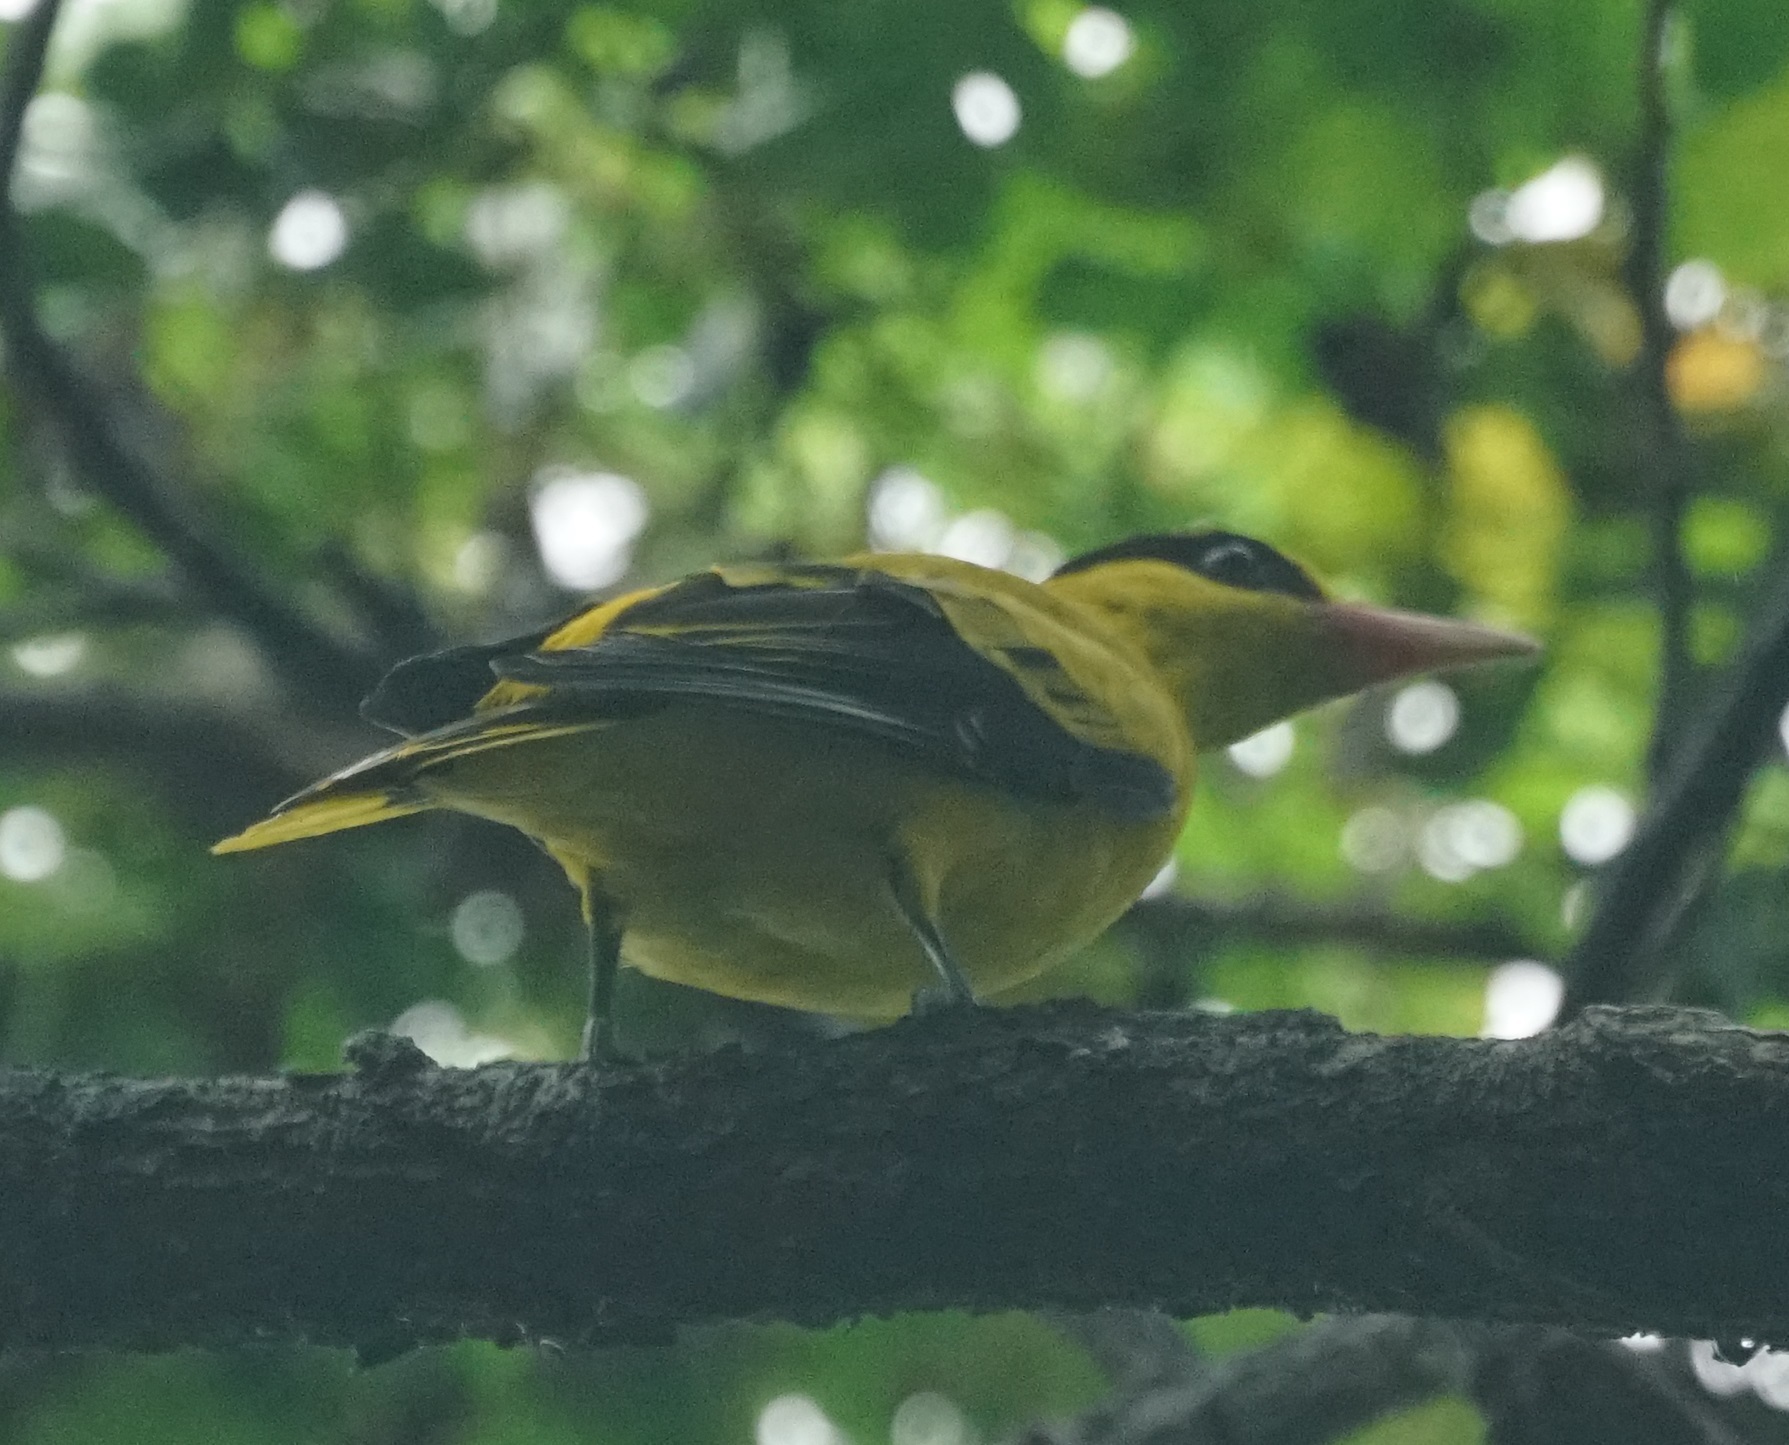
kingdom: Animalia
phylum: Chordata
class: Aves
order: Passeriformes
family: Oriolidae
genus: Oriolus
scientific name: Oriolus chinensis
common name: Black-naped oriole
